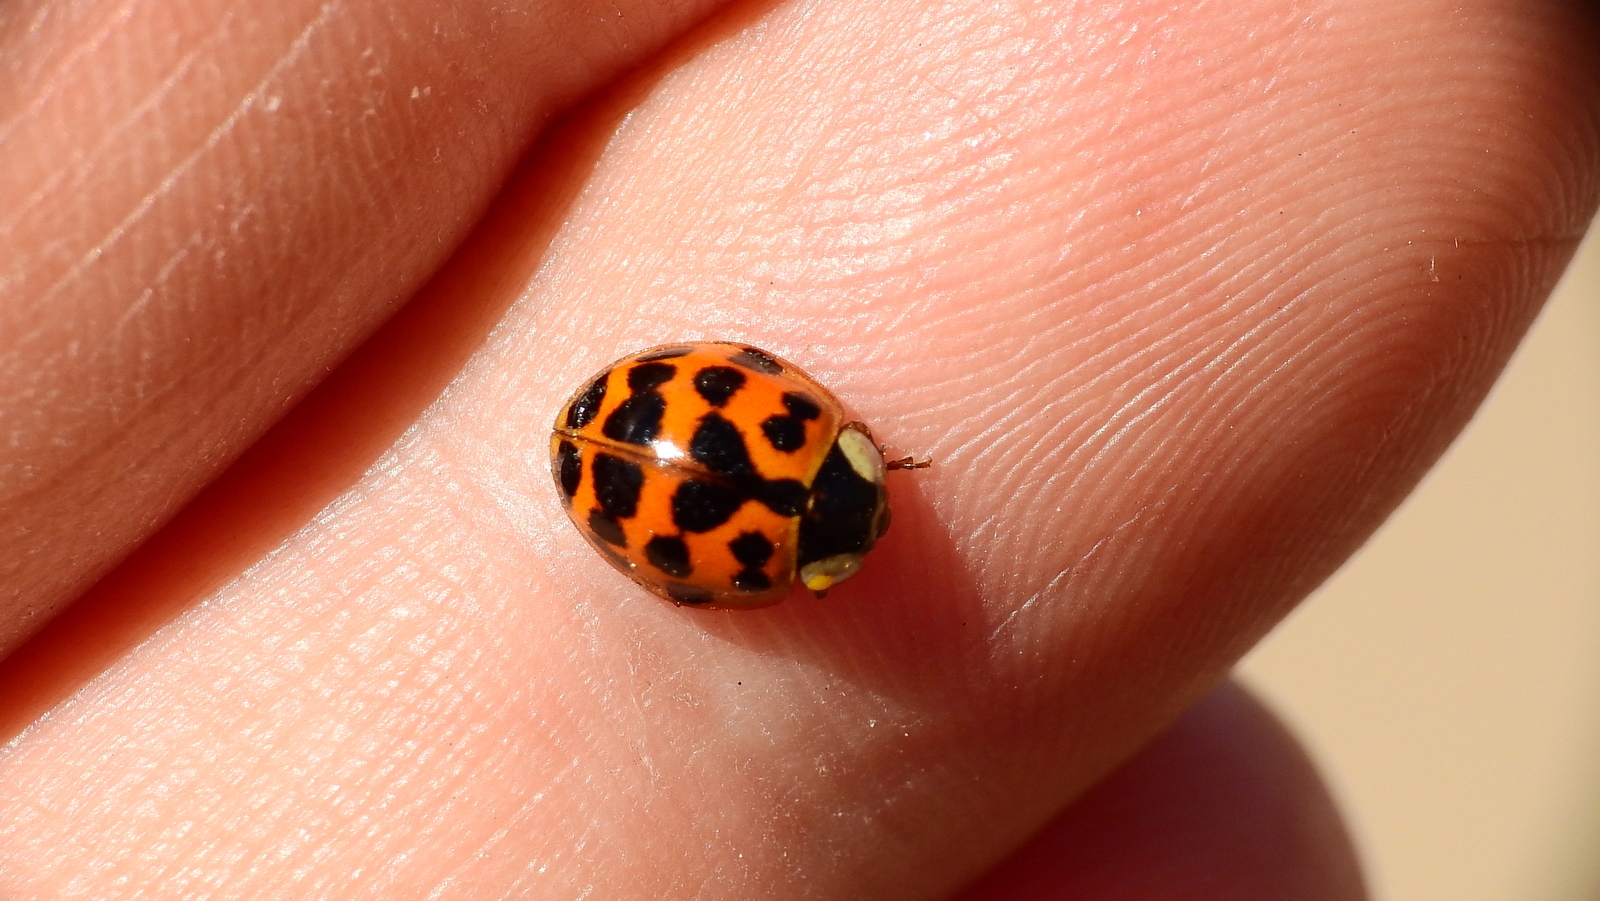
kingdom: Animalia
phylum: Arthropoda
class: Insecta
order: Coleoptera
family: Coccinellidae
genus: Harmonia
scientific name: Harmonia axyridis
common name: Harlequin ladybird
